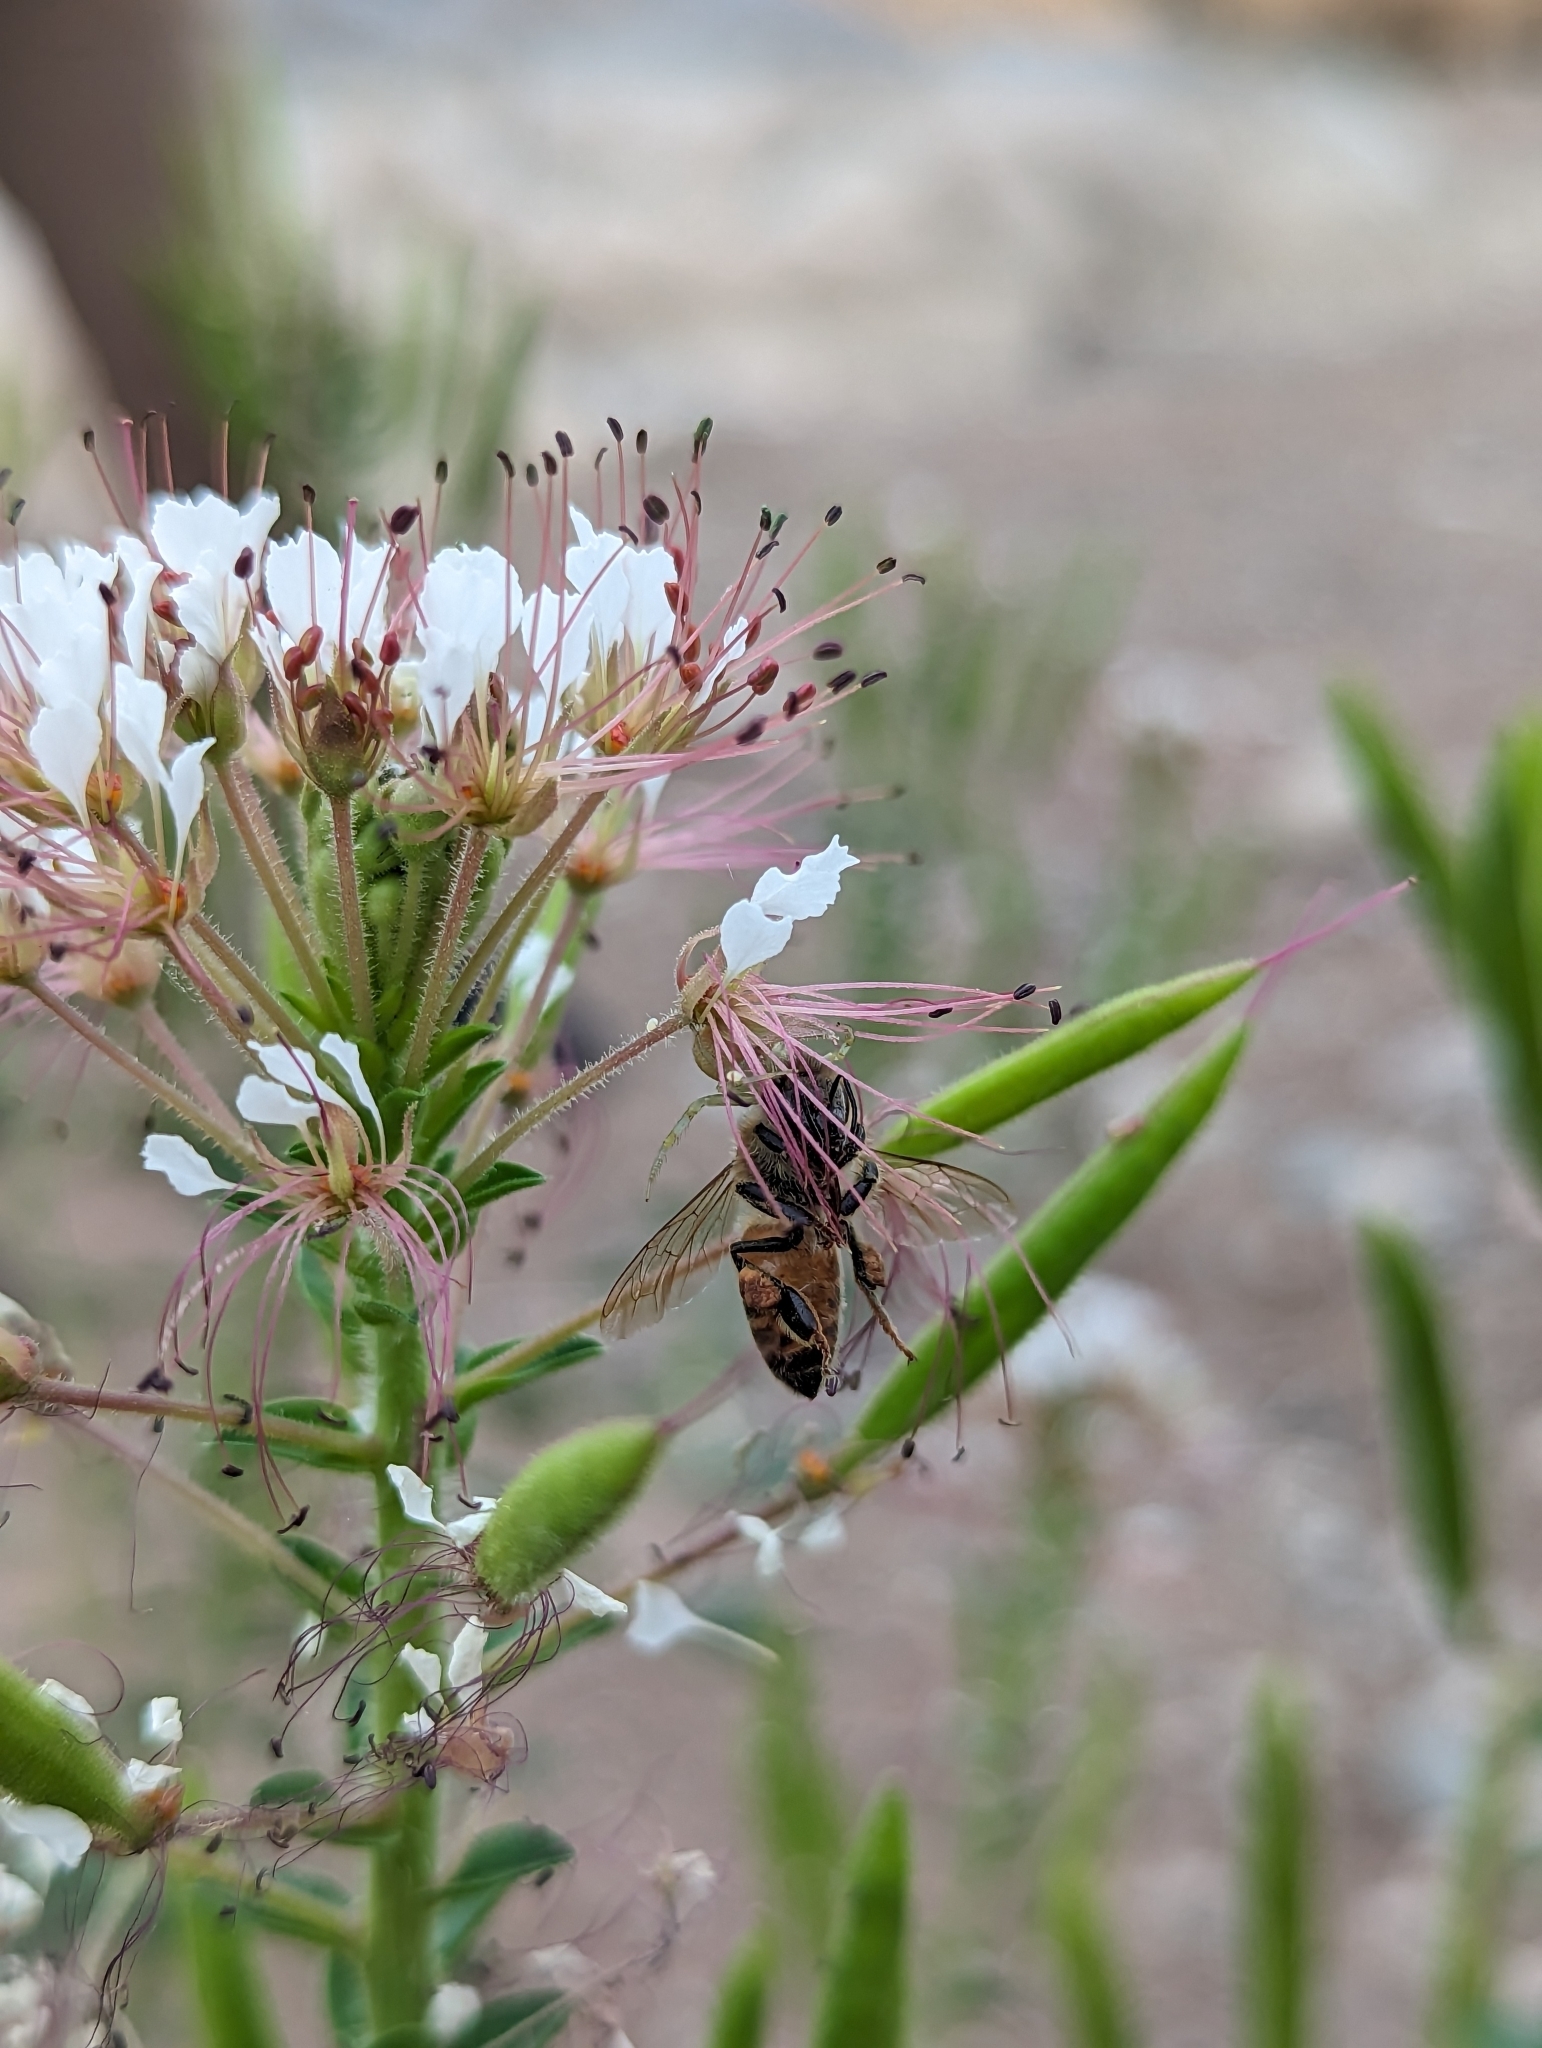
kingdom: Animalia
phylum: Arthropoda
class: Insecta
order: Hymenoptera
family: Apidae
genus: Apis
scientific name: Apis mellifera
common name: Honey bee
